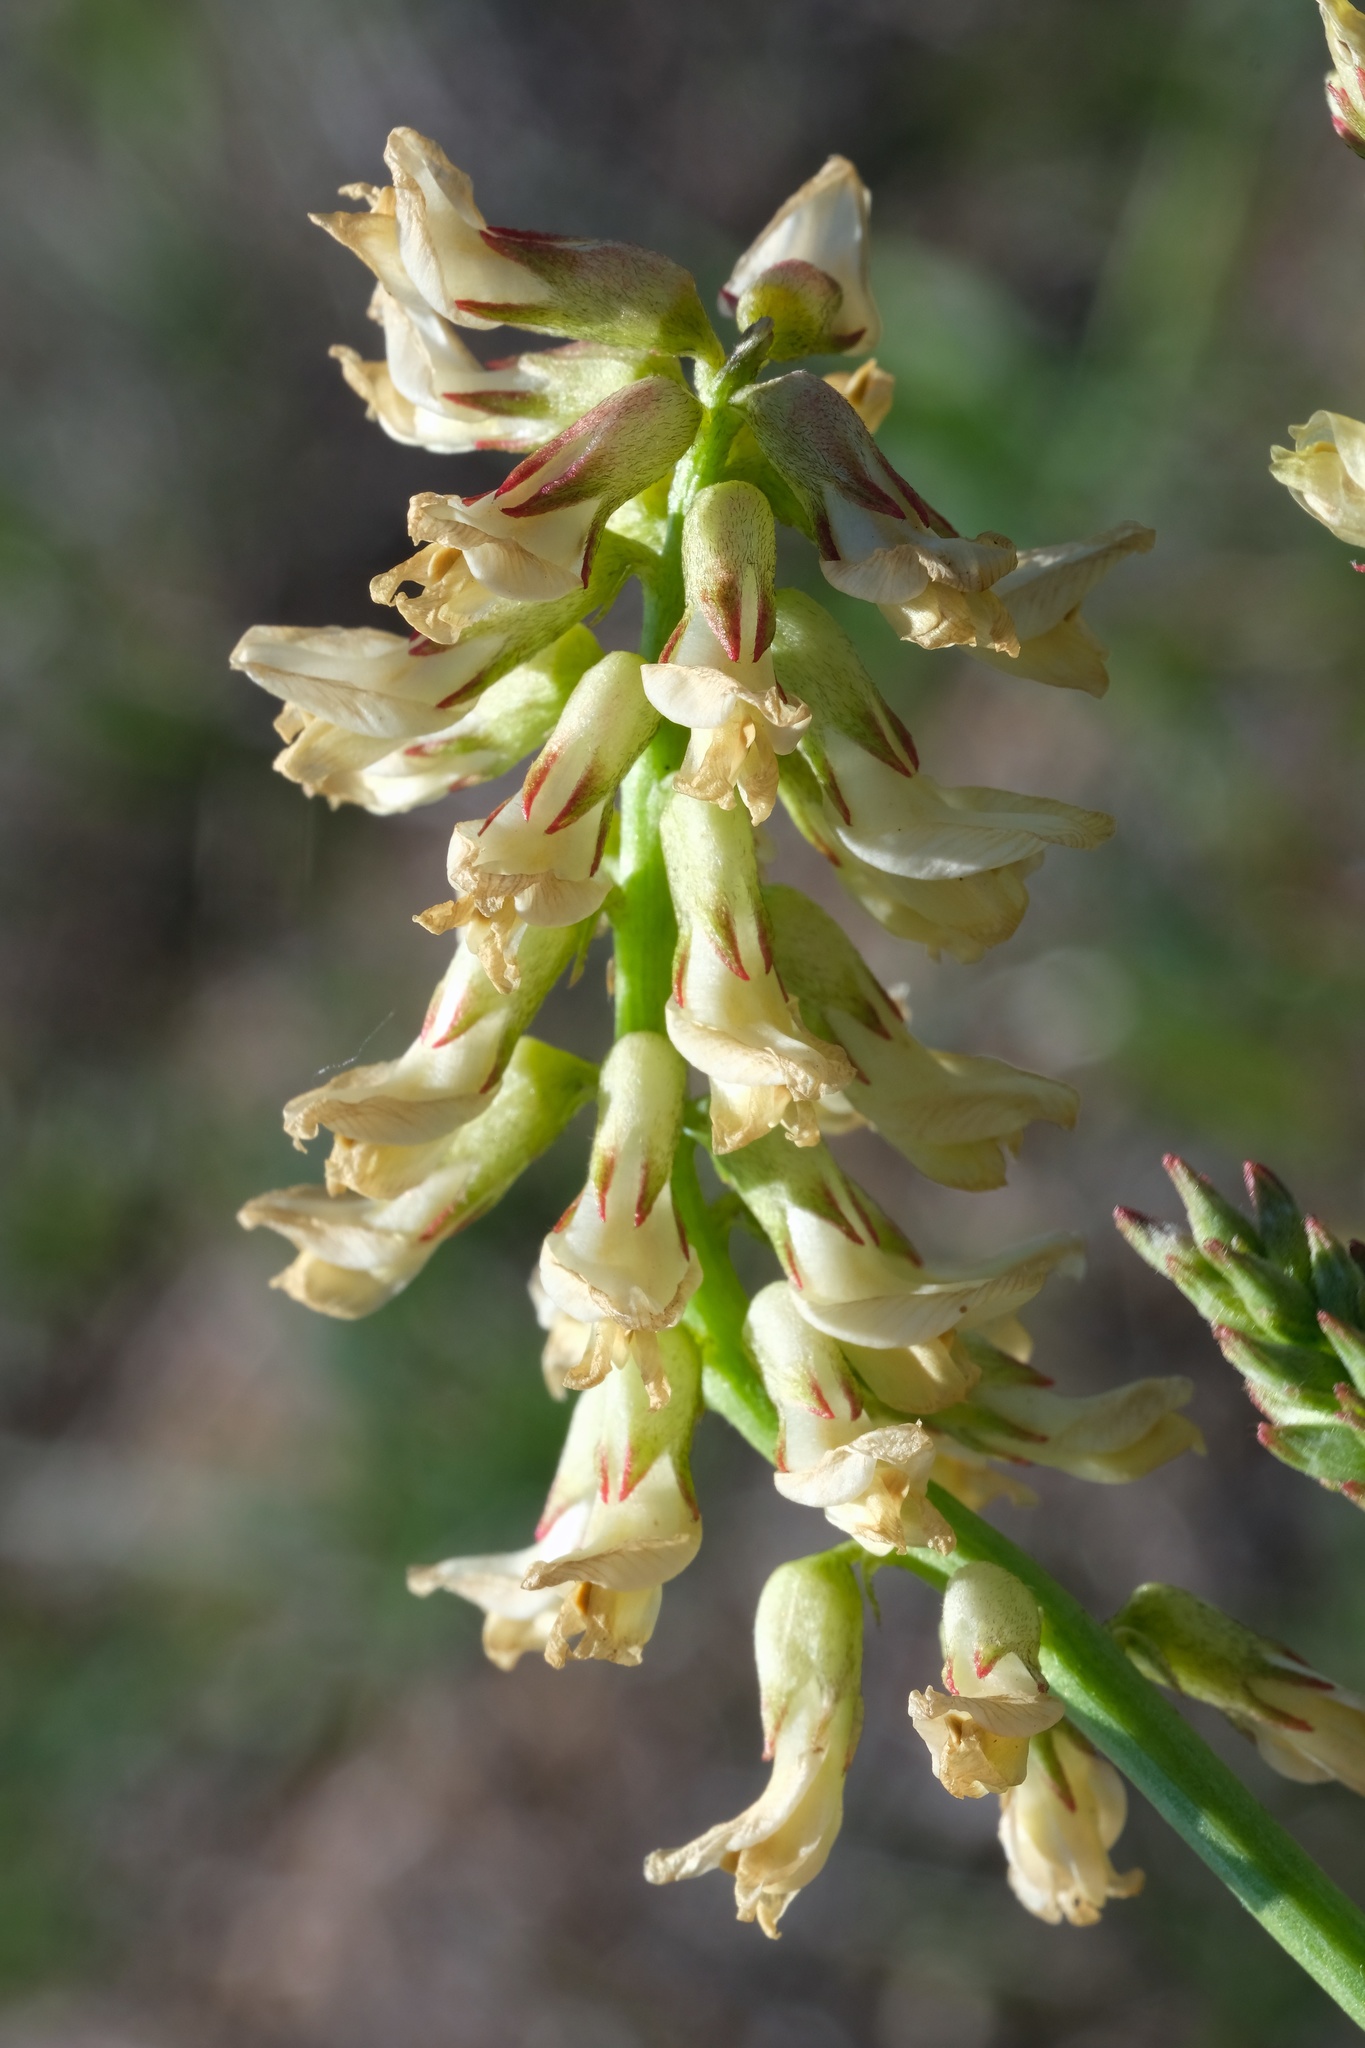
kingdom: Plantae
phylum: Tracheophyta
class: Magnoliopsida
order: Fabales
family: Fabaceae
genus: Astragalus
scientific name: Astragalus pomonensis
